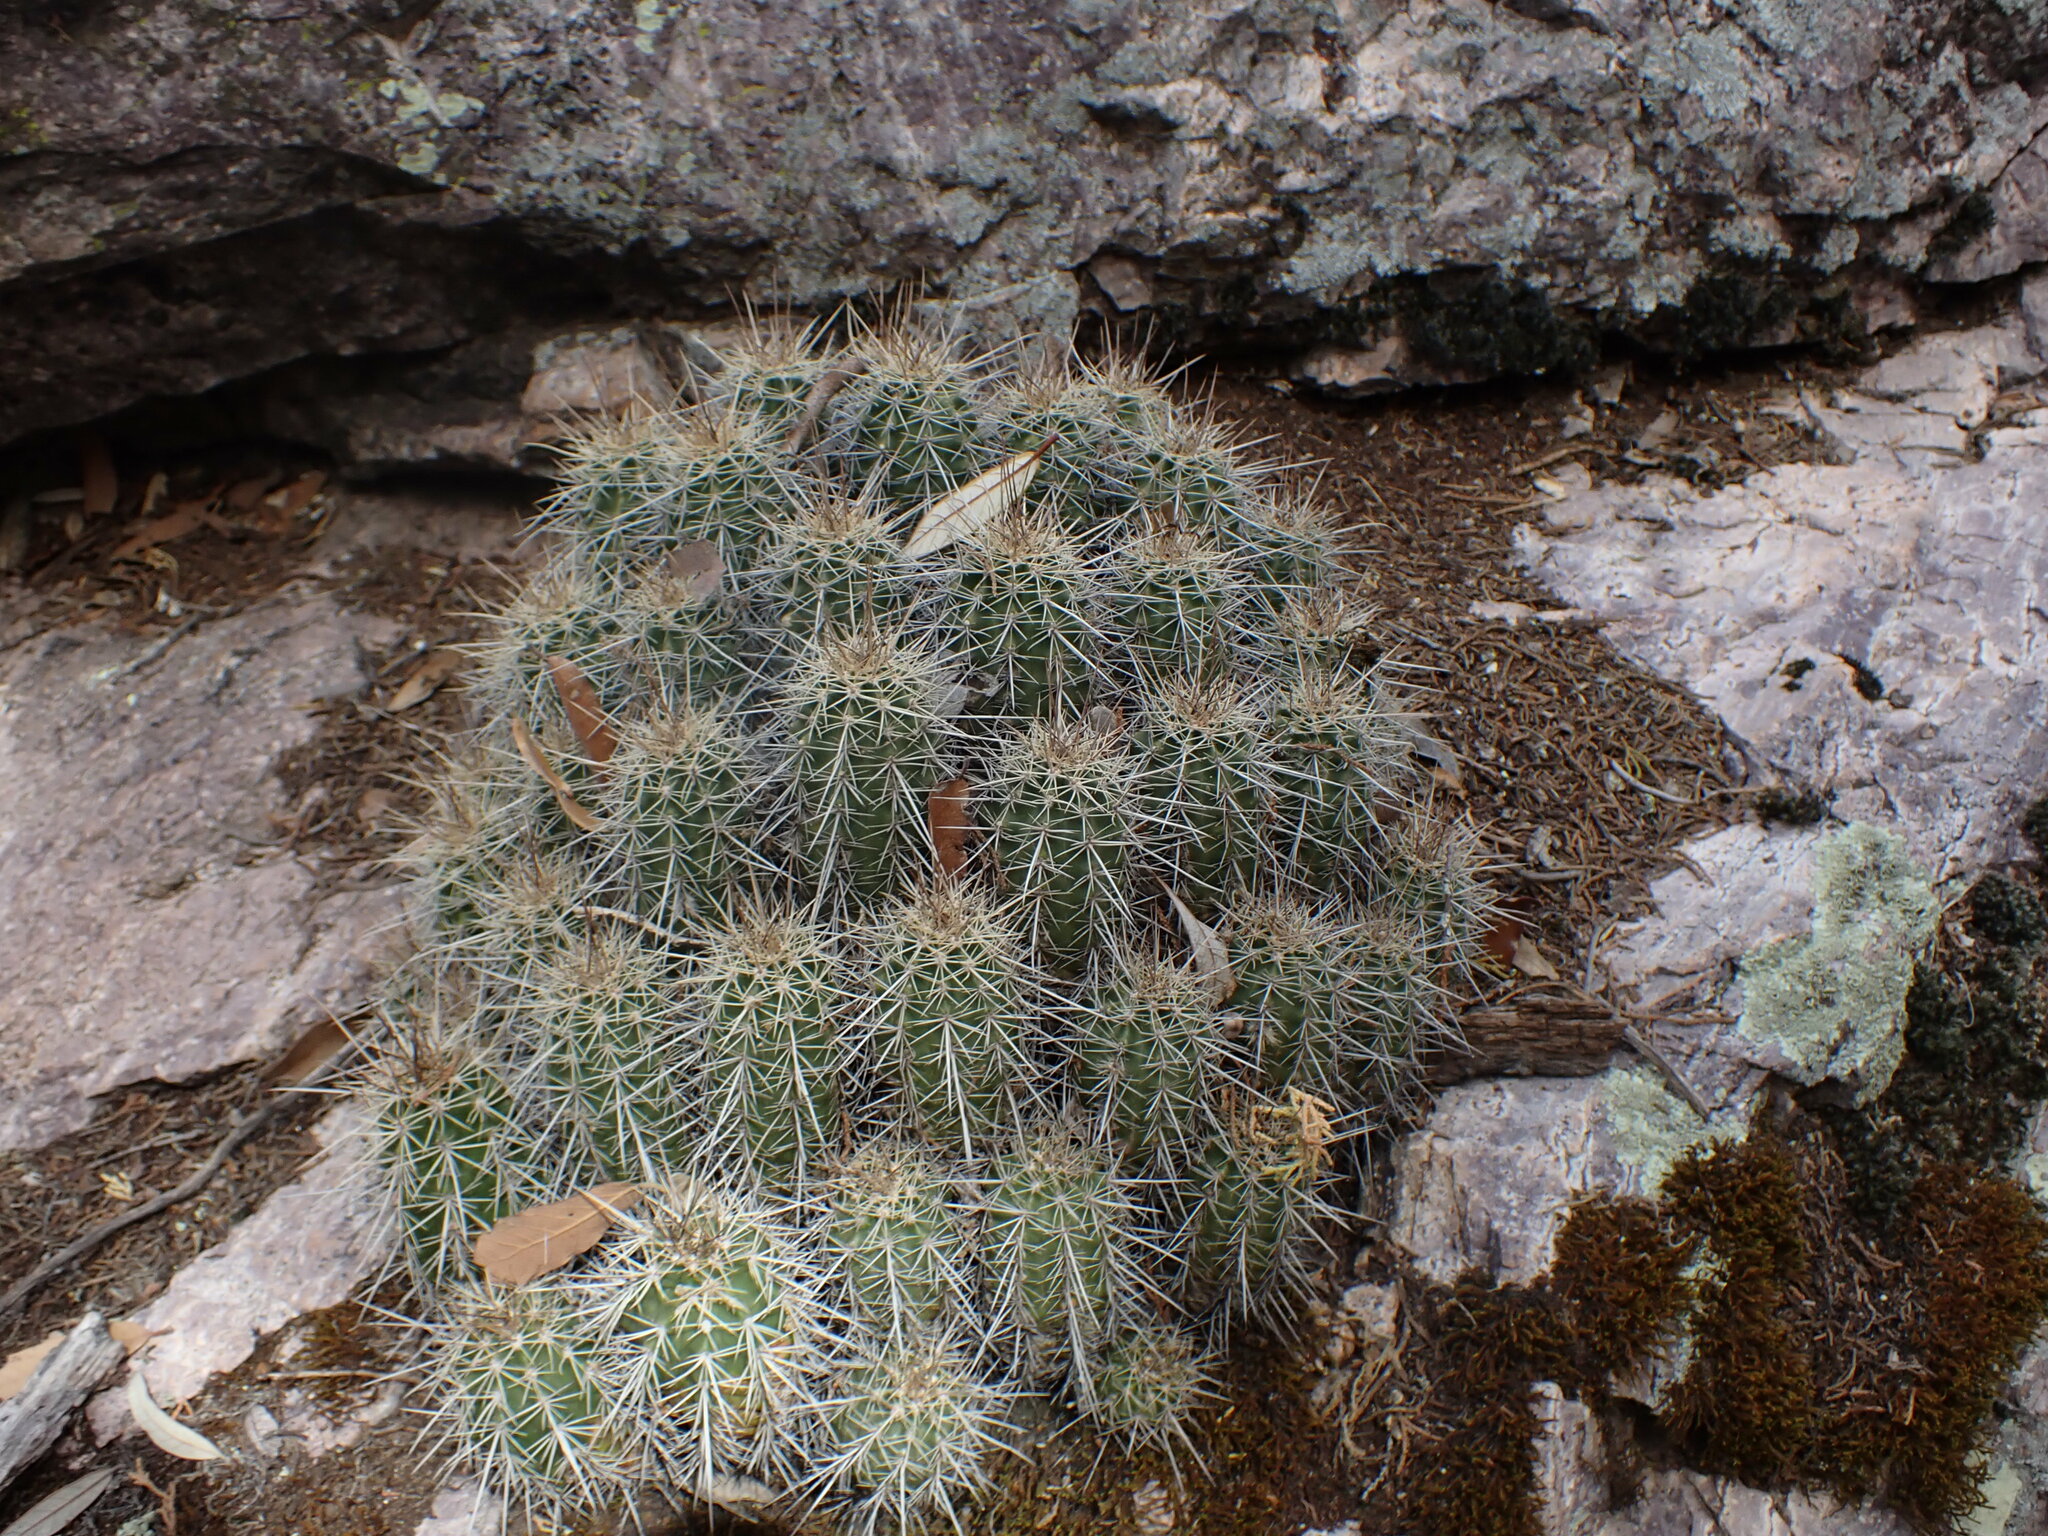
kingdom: Plantae
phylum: Tracheophyta
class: Magnoliopsida
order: Caryophyllales
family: Cactaceae
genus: Echinocereus
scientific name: Echinocereus coccineus
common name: Scarlet hedgehog cactus
